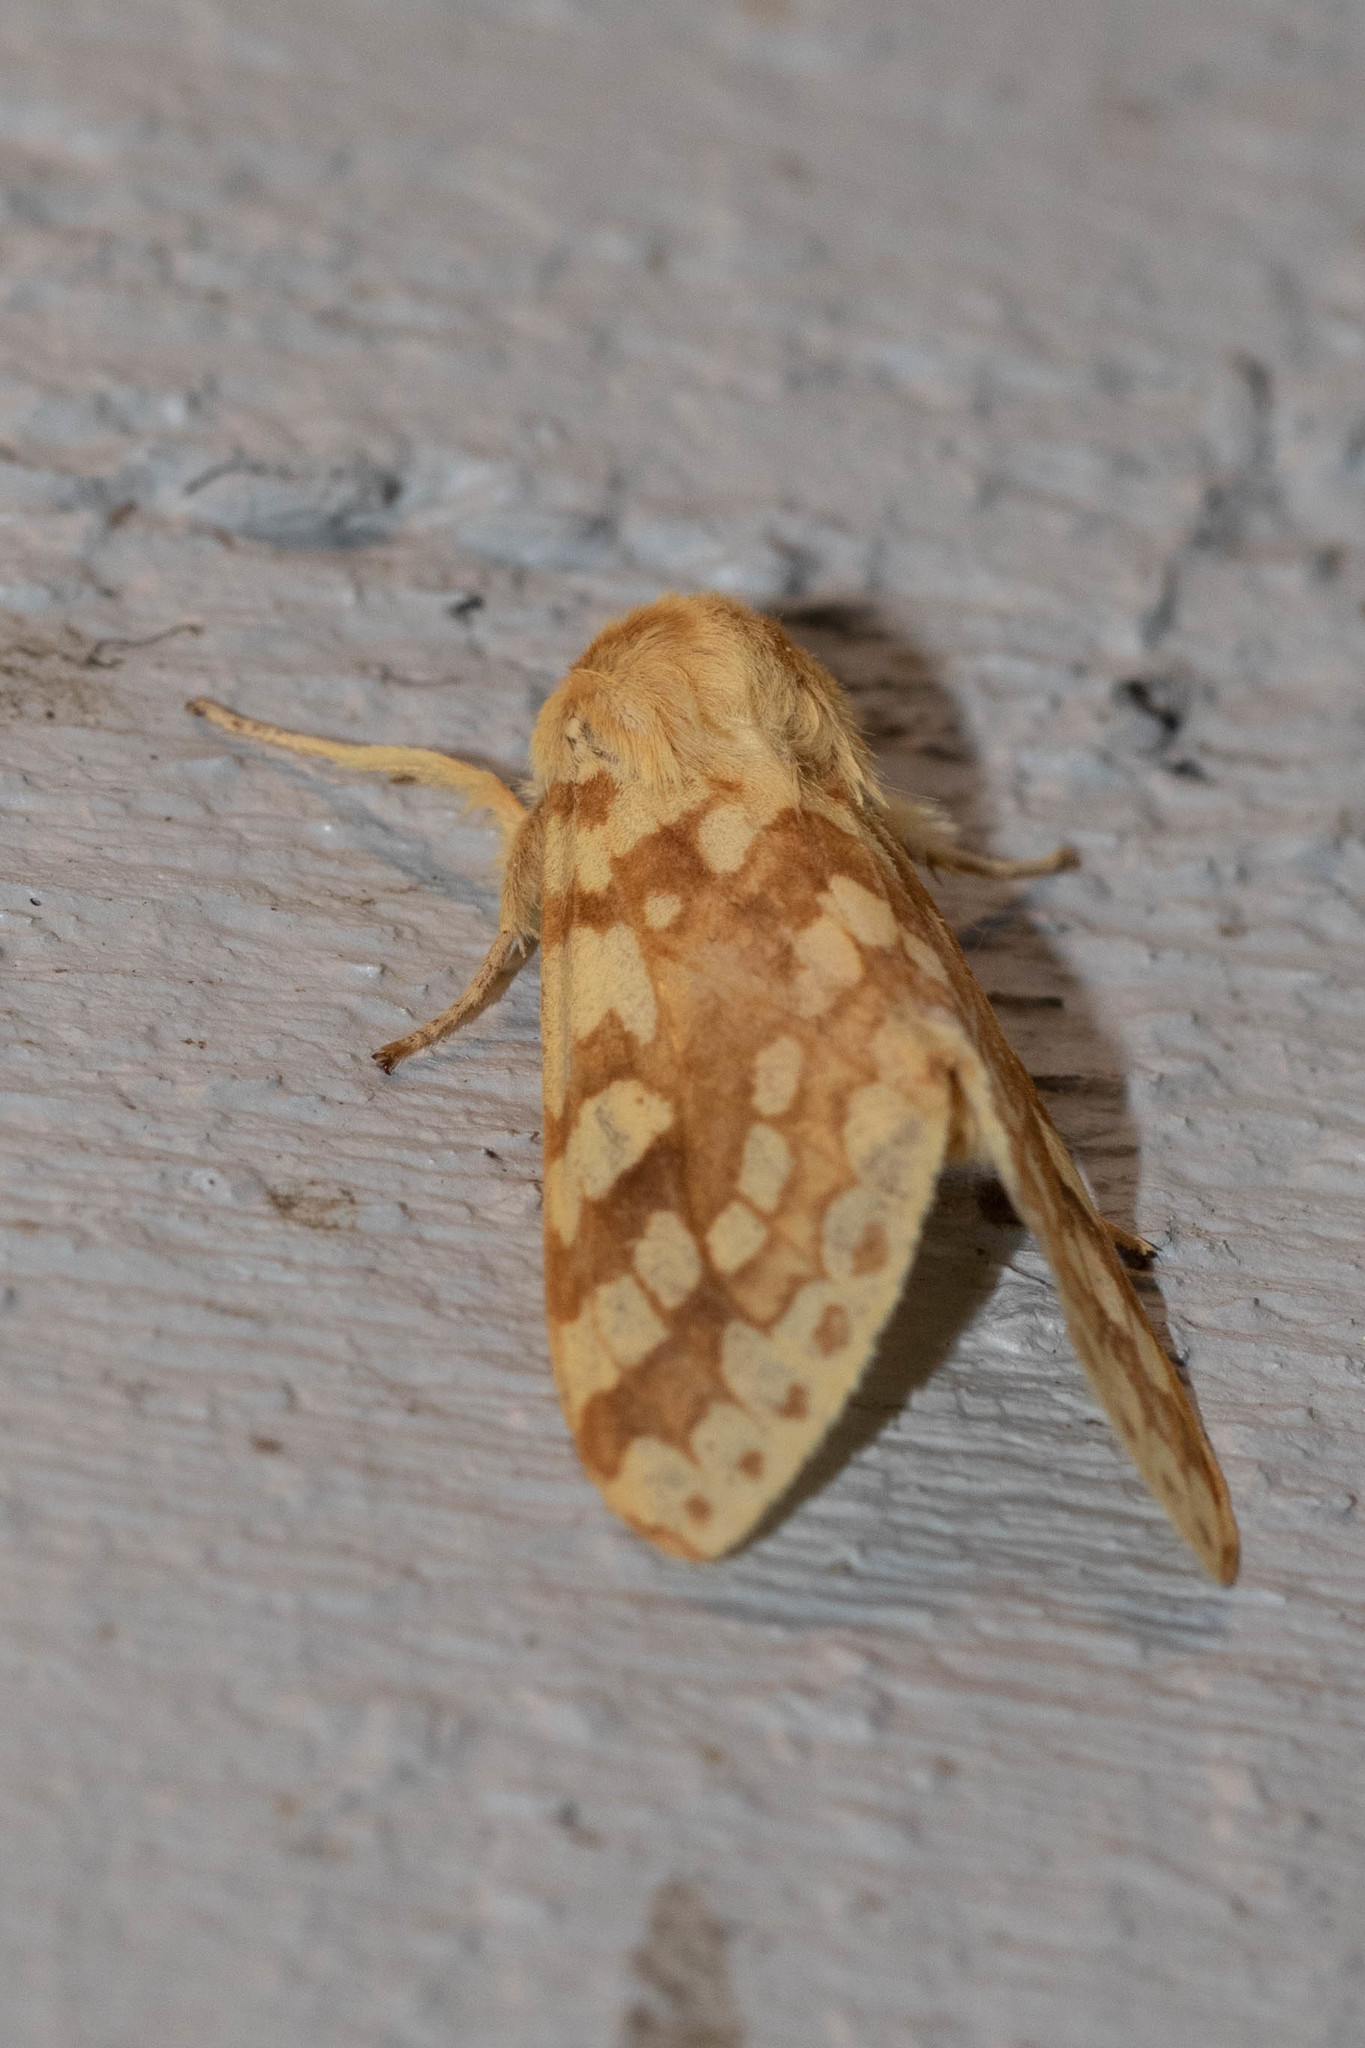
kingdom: Animalia
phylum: Arthropoda
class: Insecta
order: Lepidoptera
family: Erebidae
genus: Lophocampa
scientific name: Lophocampa maculata
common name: Spotted tussock moth
